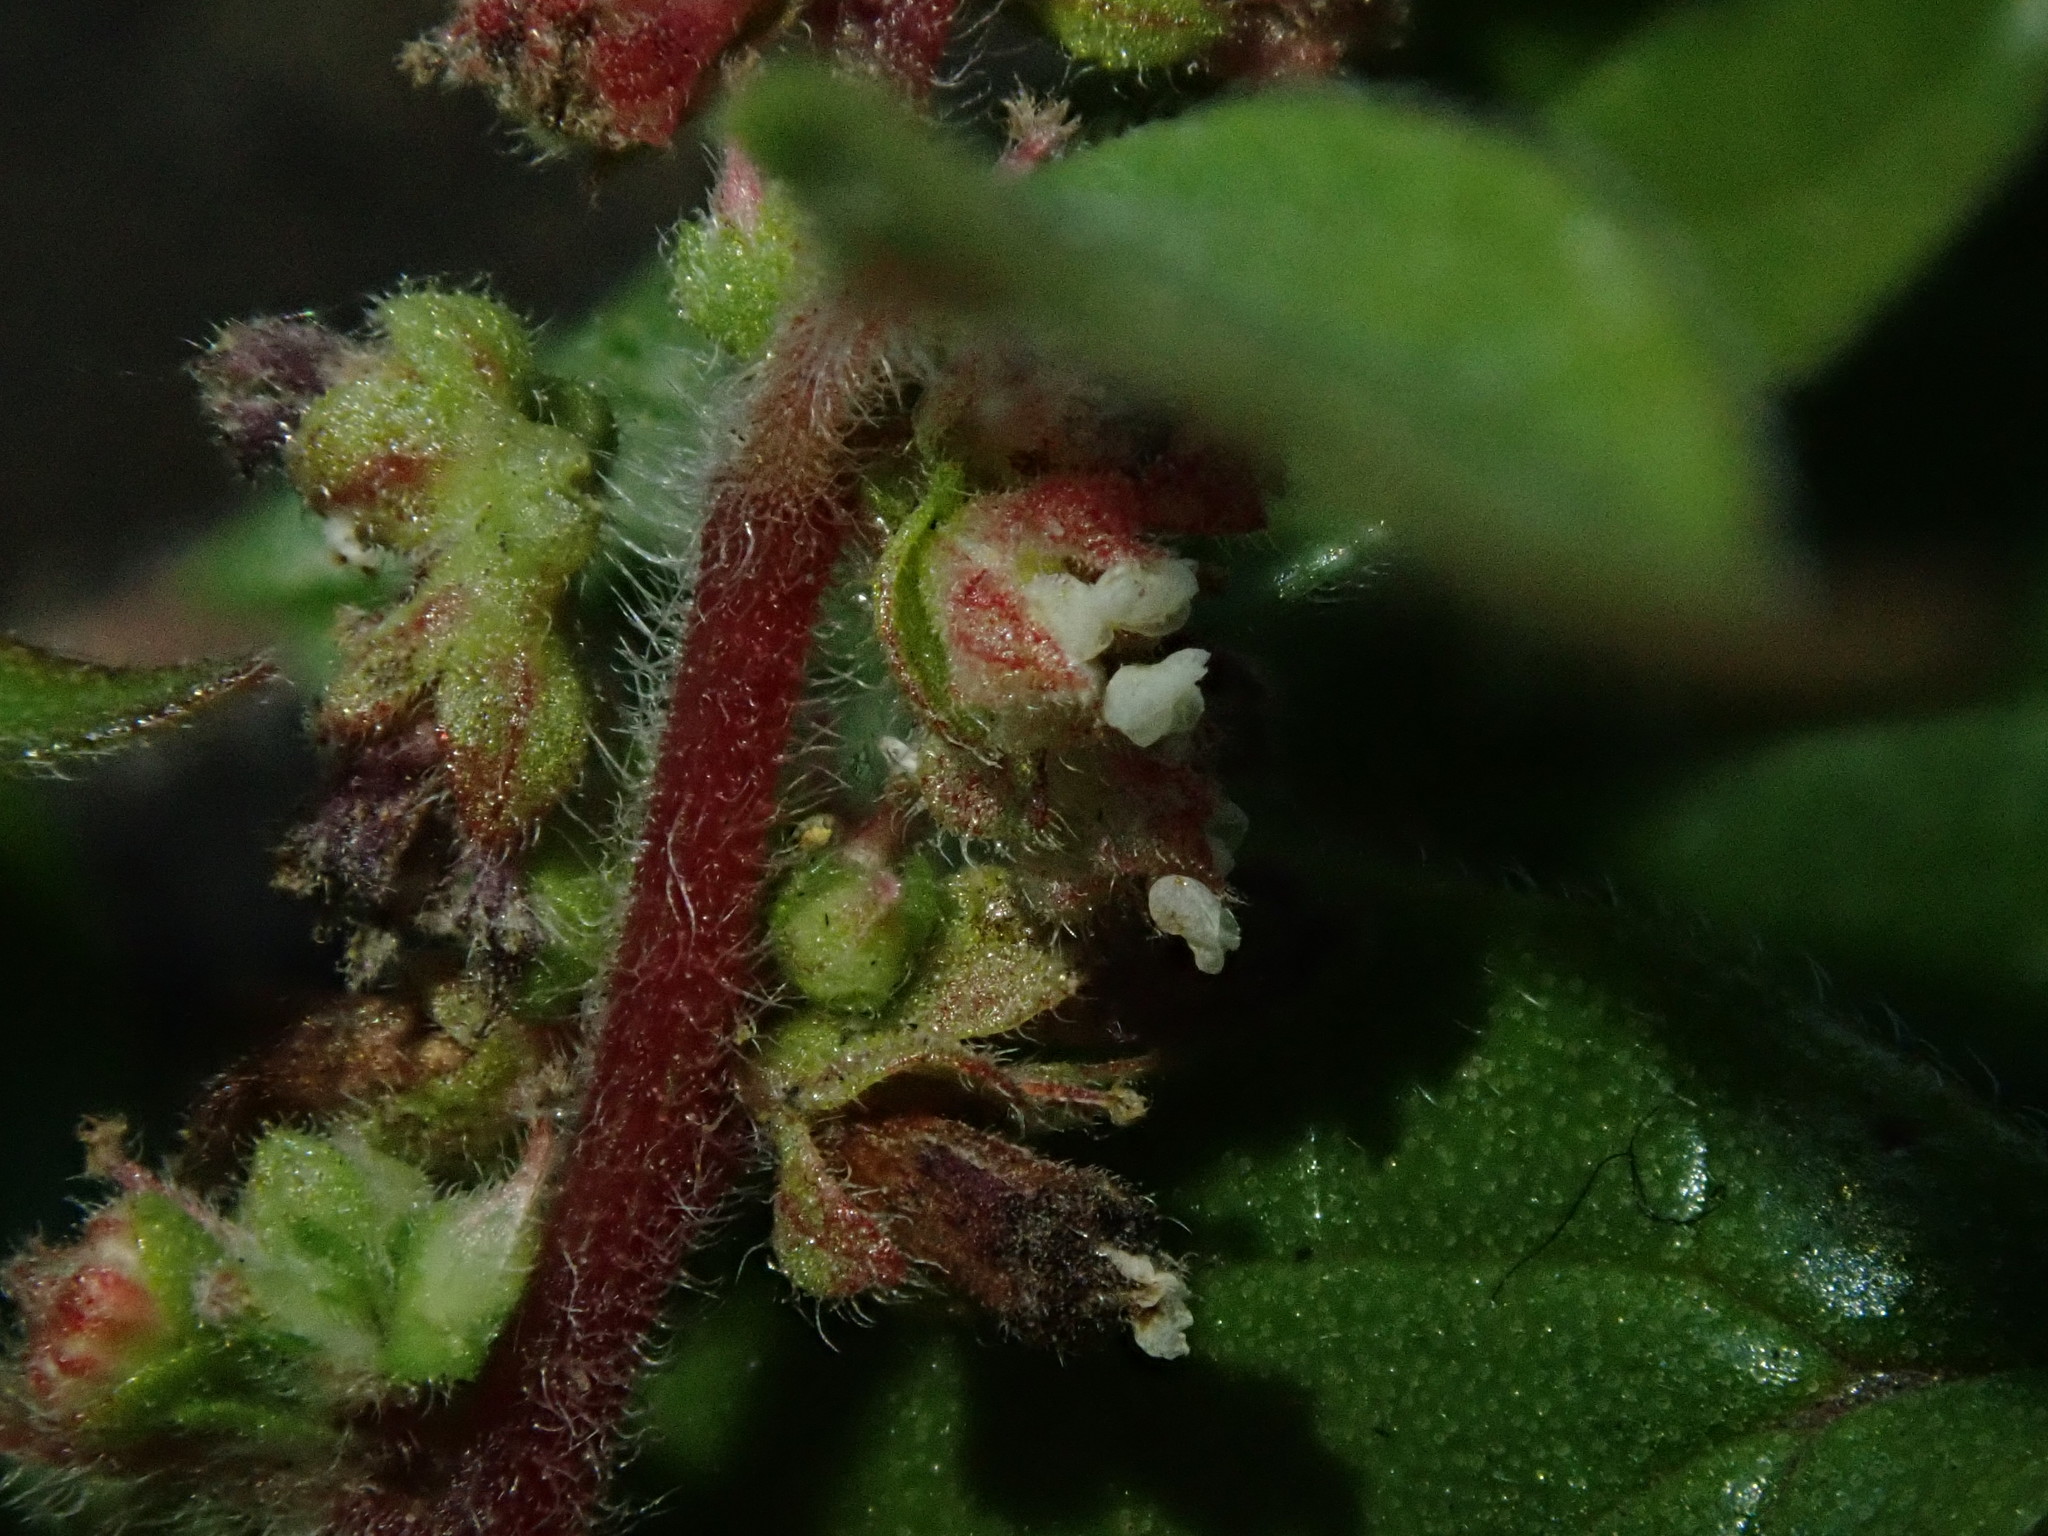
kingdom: Plantae
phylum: Tracheophyta
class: Magnoliopsida
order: Rosales
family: Urticaceae
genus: Parietaria
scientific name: Parietaria judaica
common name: Pellitory-of-the-wall
